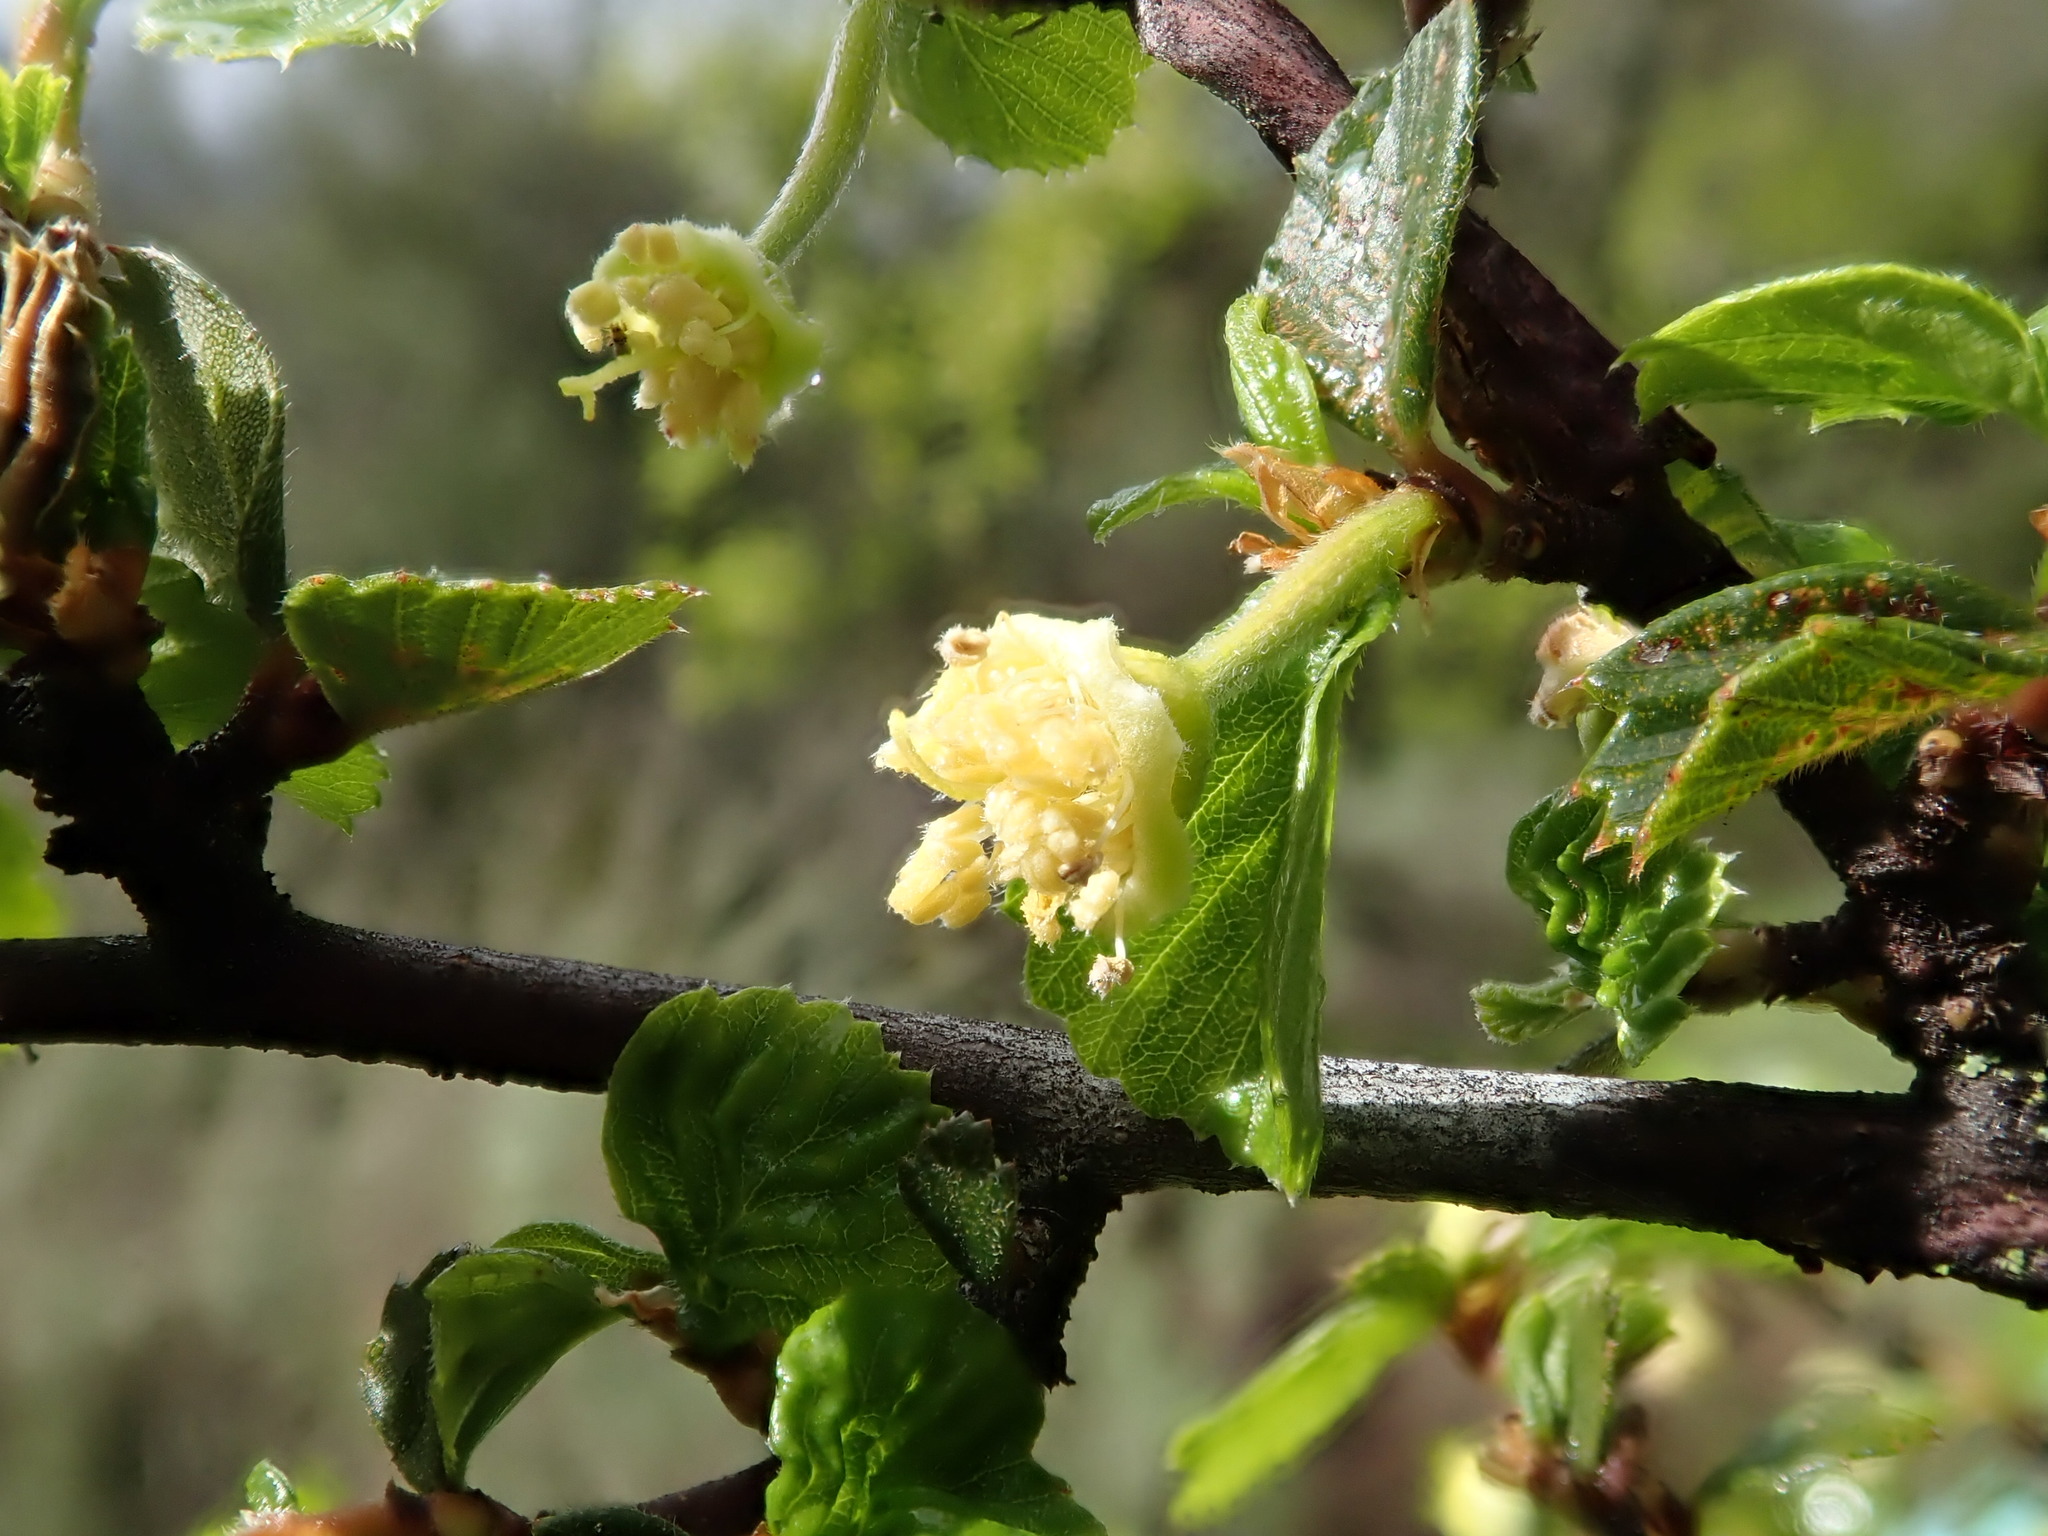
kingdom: Plantae
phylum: Tracheophyta
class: Magnoliopsida
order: Rosales
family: Rosaceae
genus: Cercocarpus
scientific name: Cercocarpus betuloides
